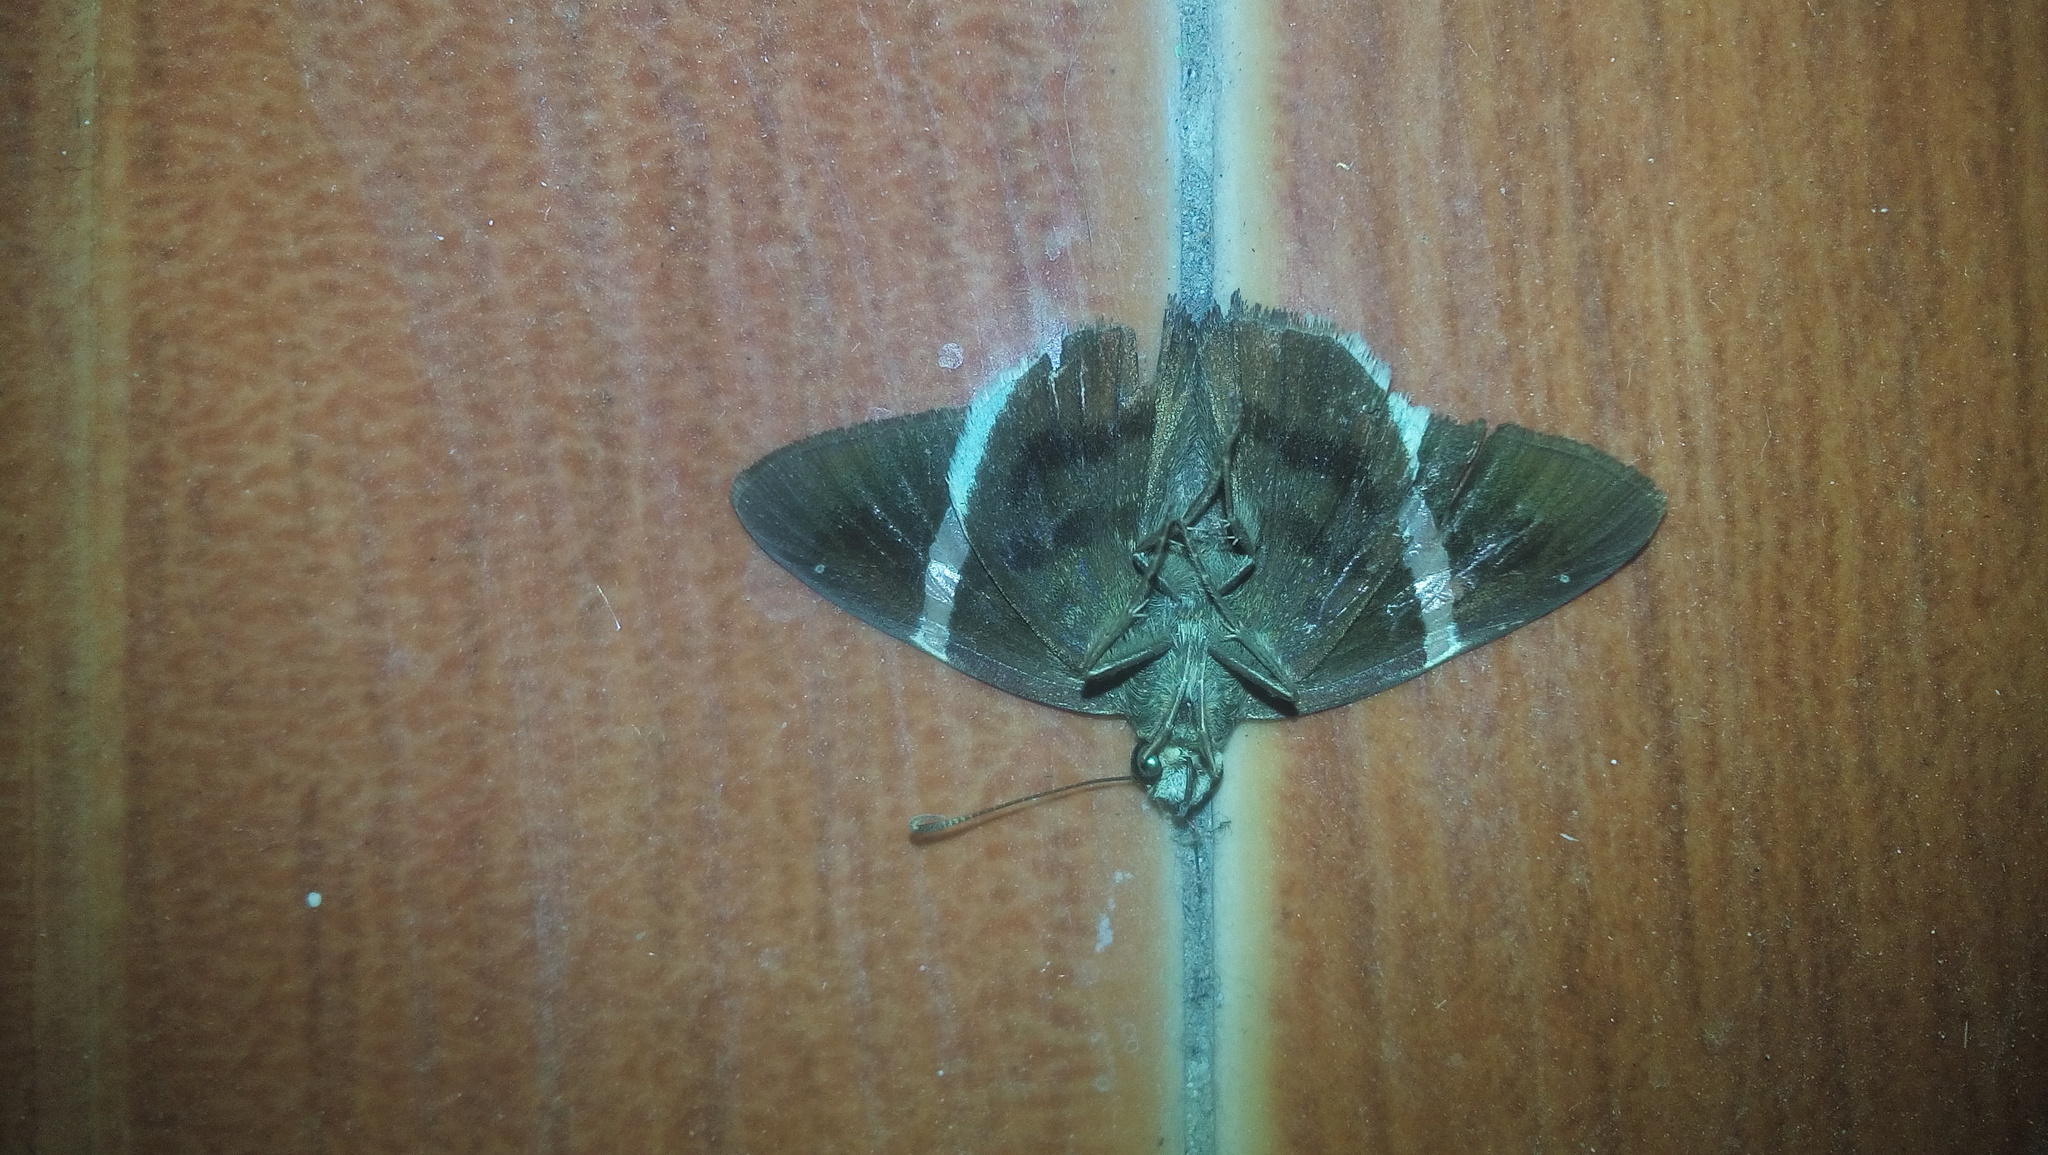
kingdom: Animalia
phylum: Arthropoda
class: Insecta
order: Lepidoptera
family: Hesperiidae
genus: Autochton
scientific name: Autochton zarex
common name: Sharp banded-skipper
